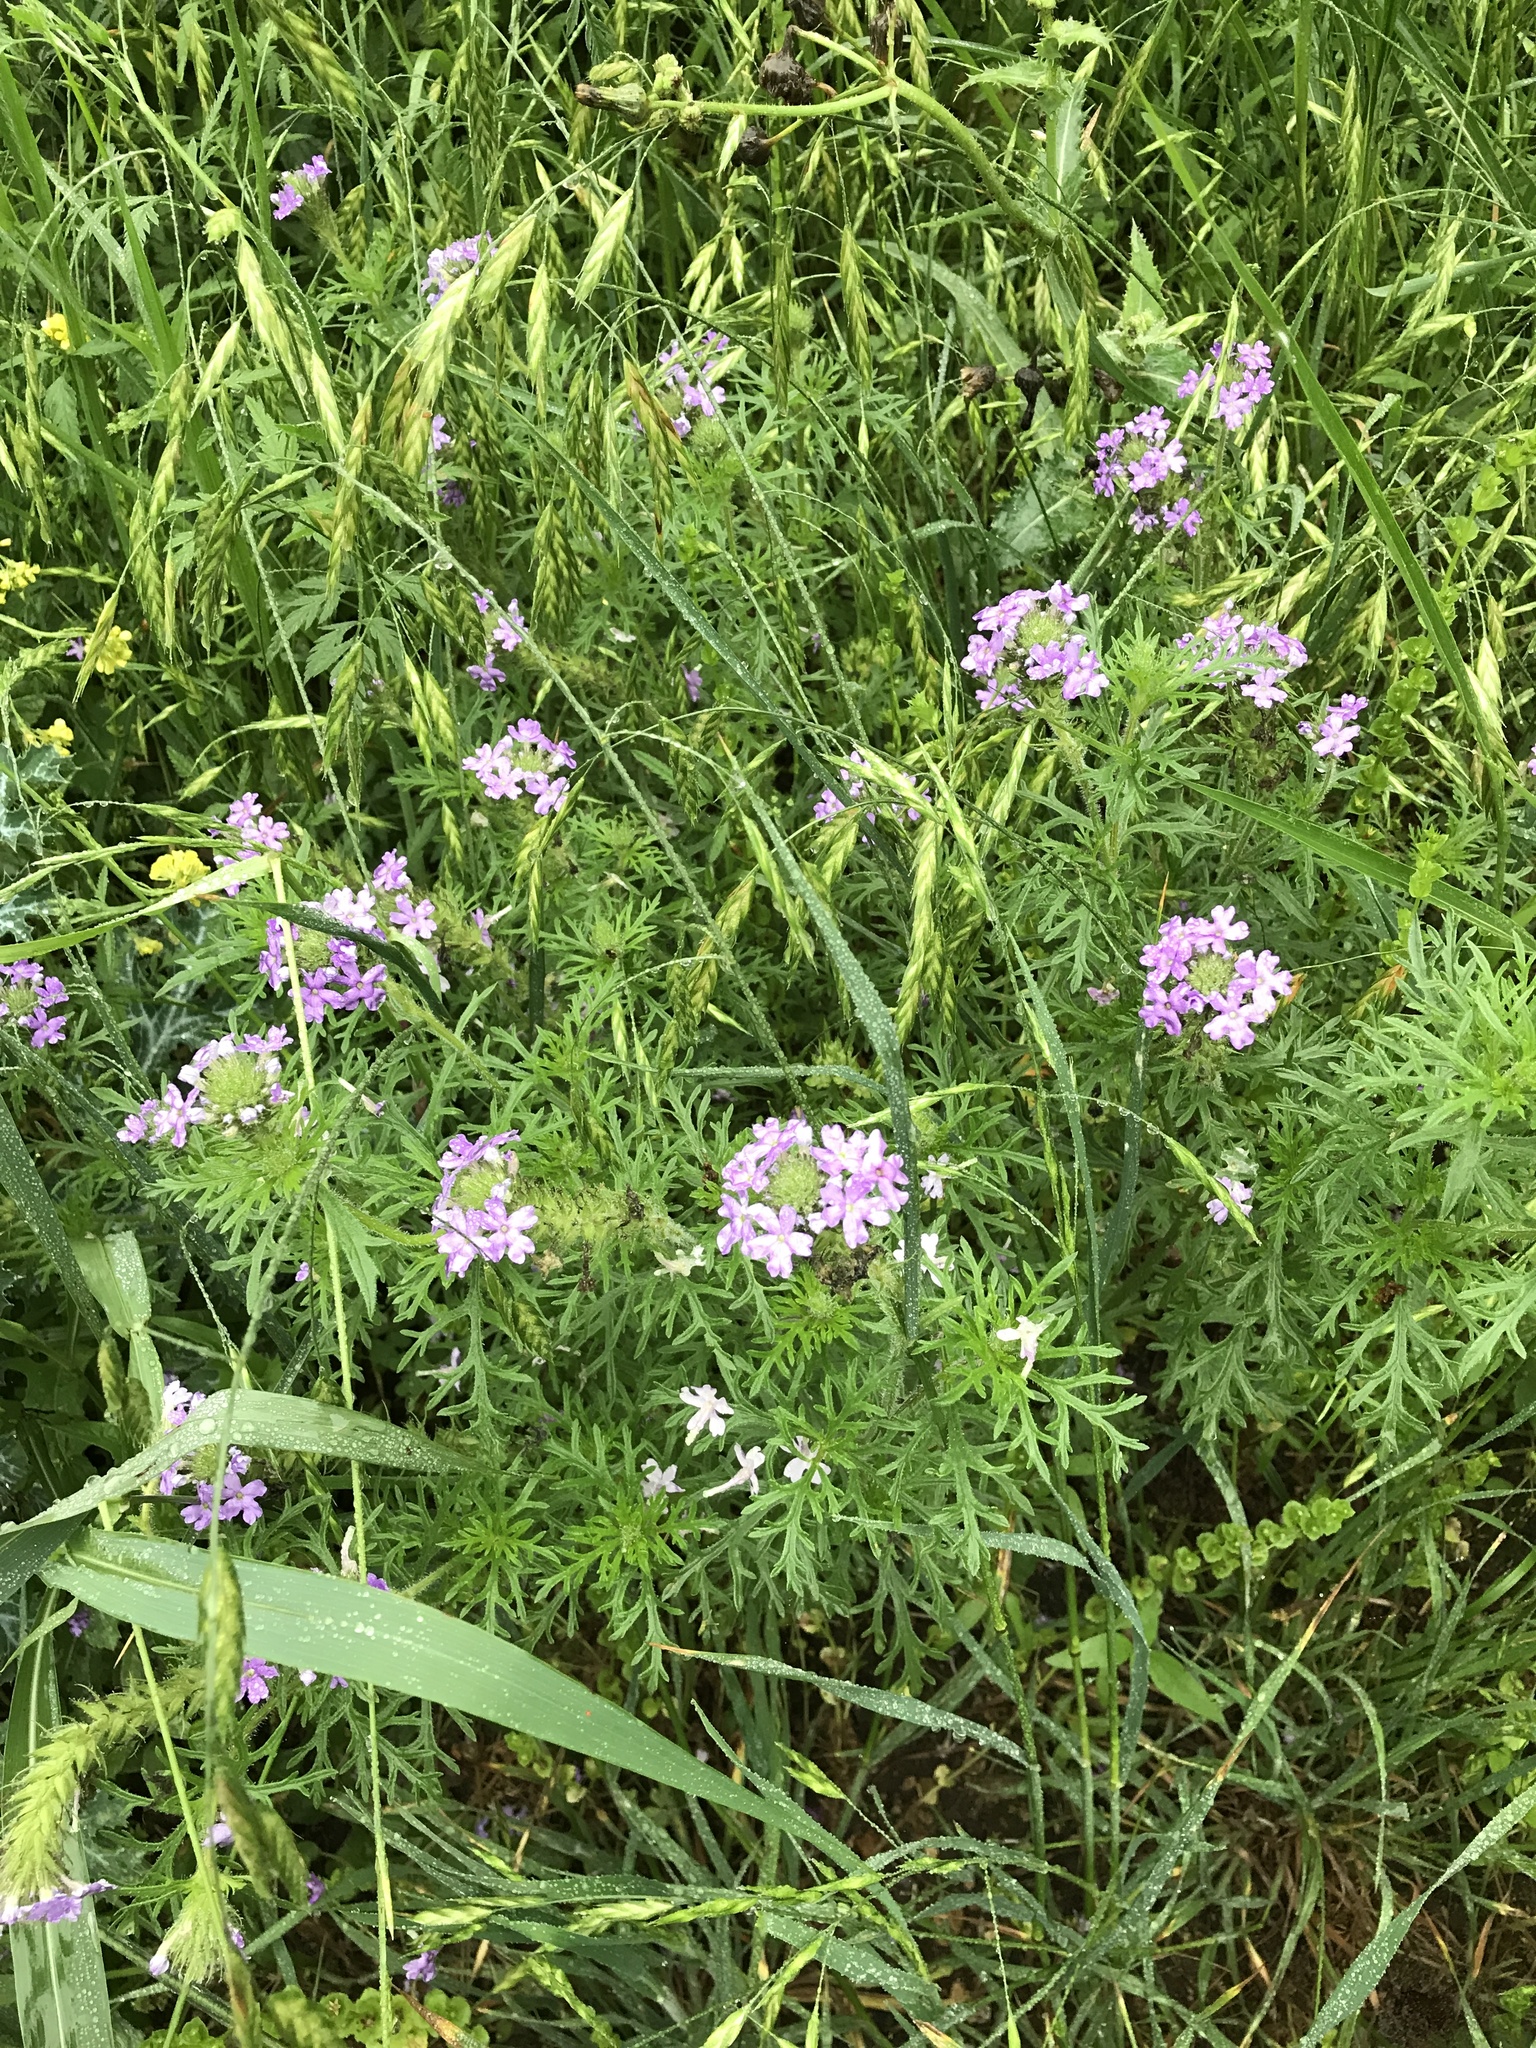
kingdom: Plantae
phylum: Tracheophyta
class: Magnoliopsida
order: Lamiales
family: Verbenaceae
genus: Verbena
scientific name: Verbena bipinnatifida
